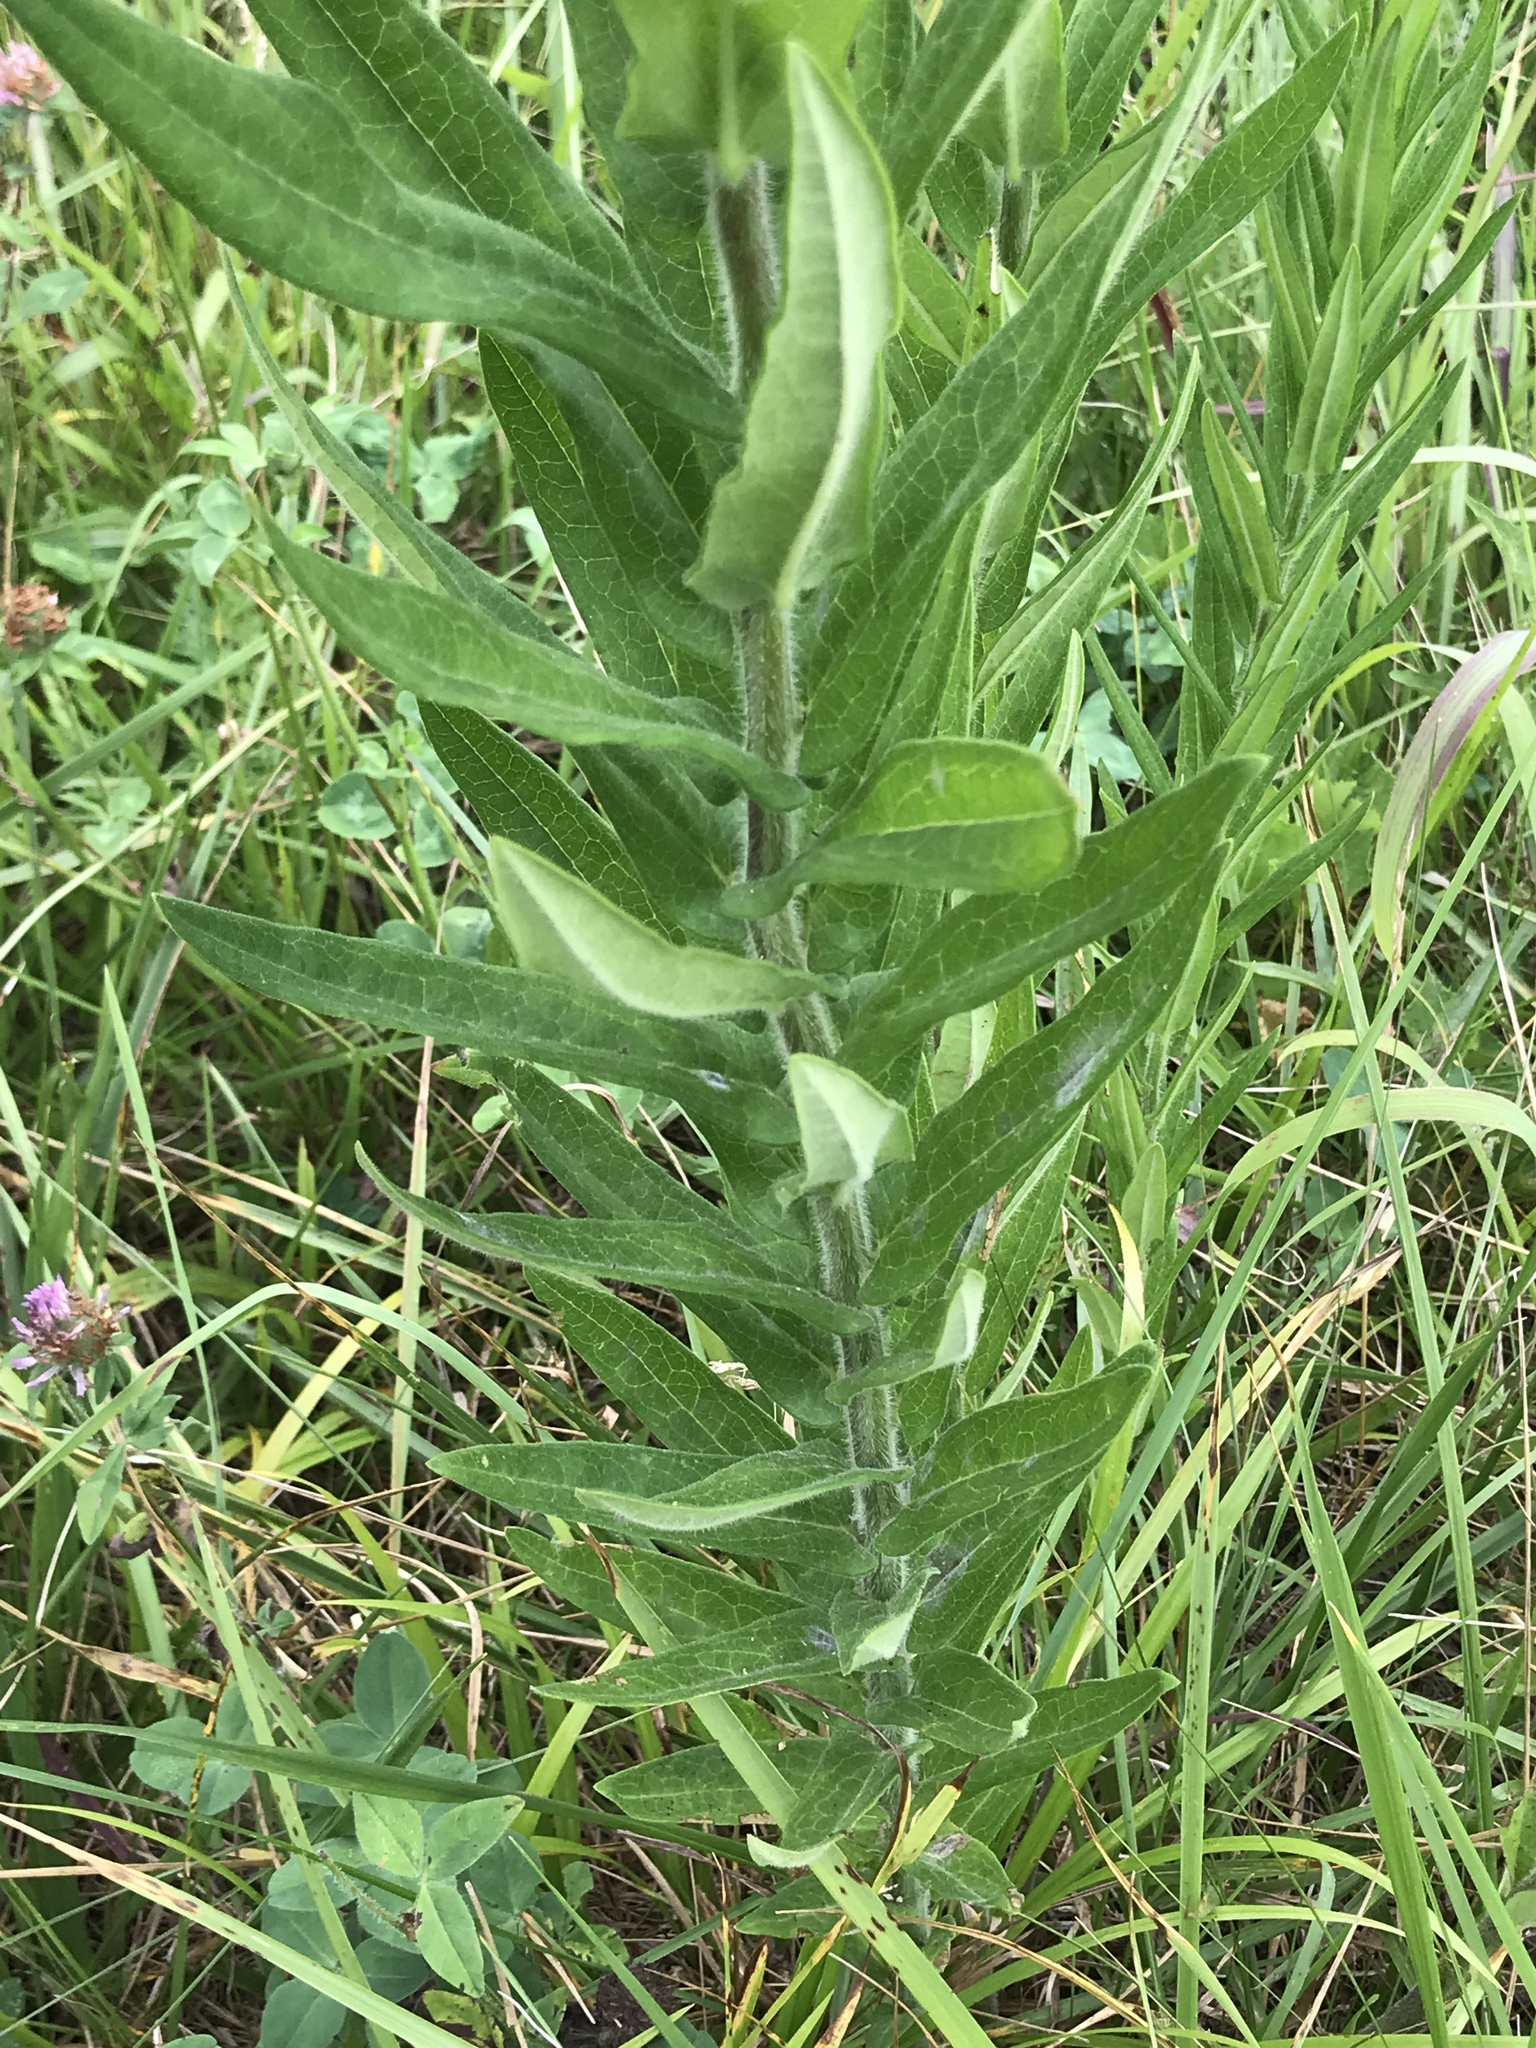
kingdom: Plantae
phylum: Tracheophyta
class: Magnoliopsida
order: Gentianales
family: Apocynaceae
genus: Asclepias
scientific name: Asclepias tuberosa
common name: Butterfly milkweed
